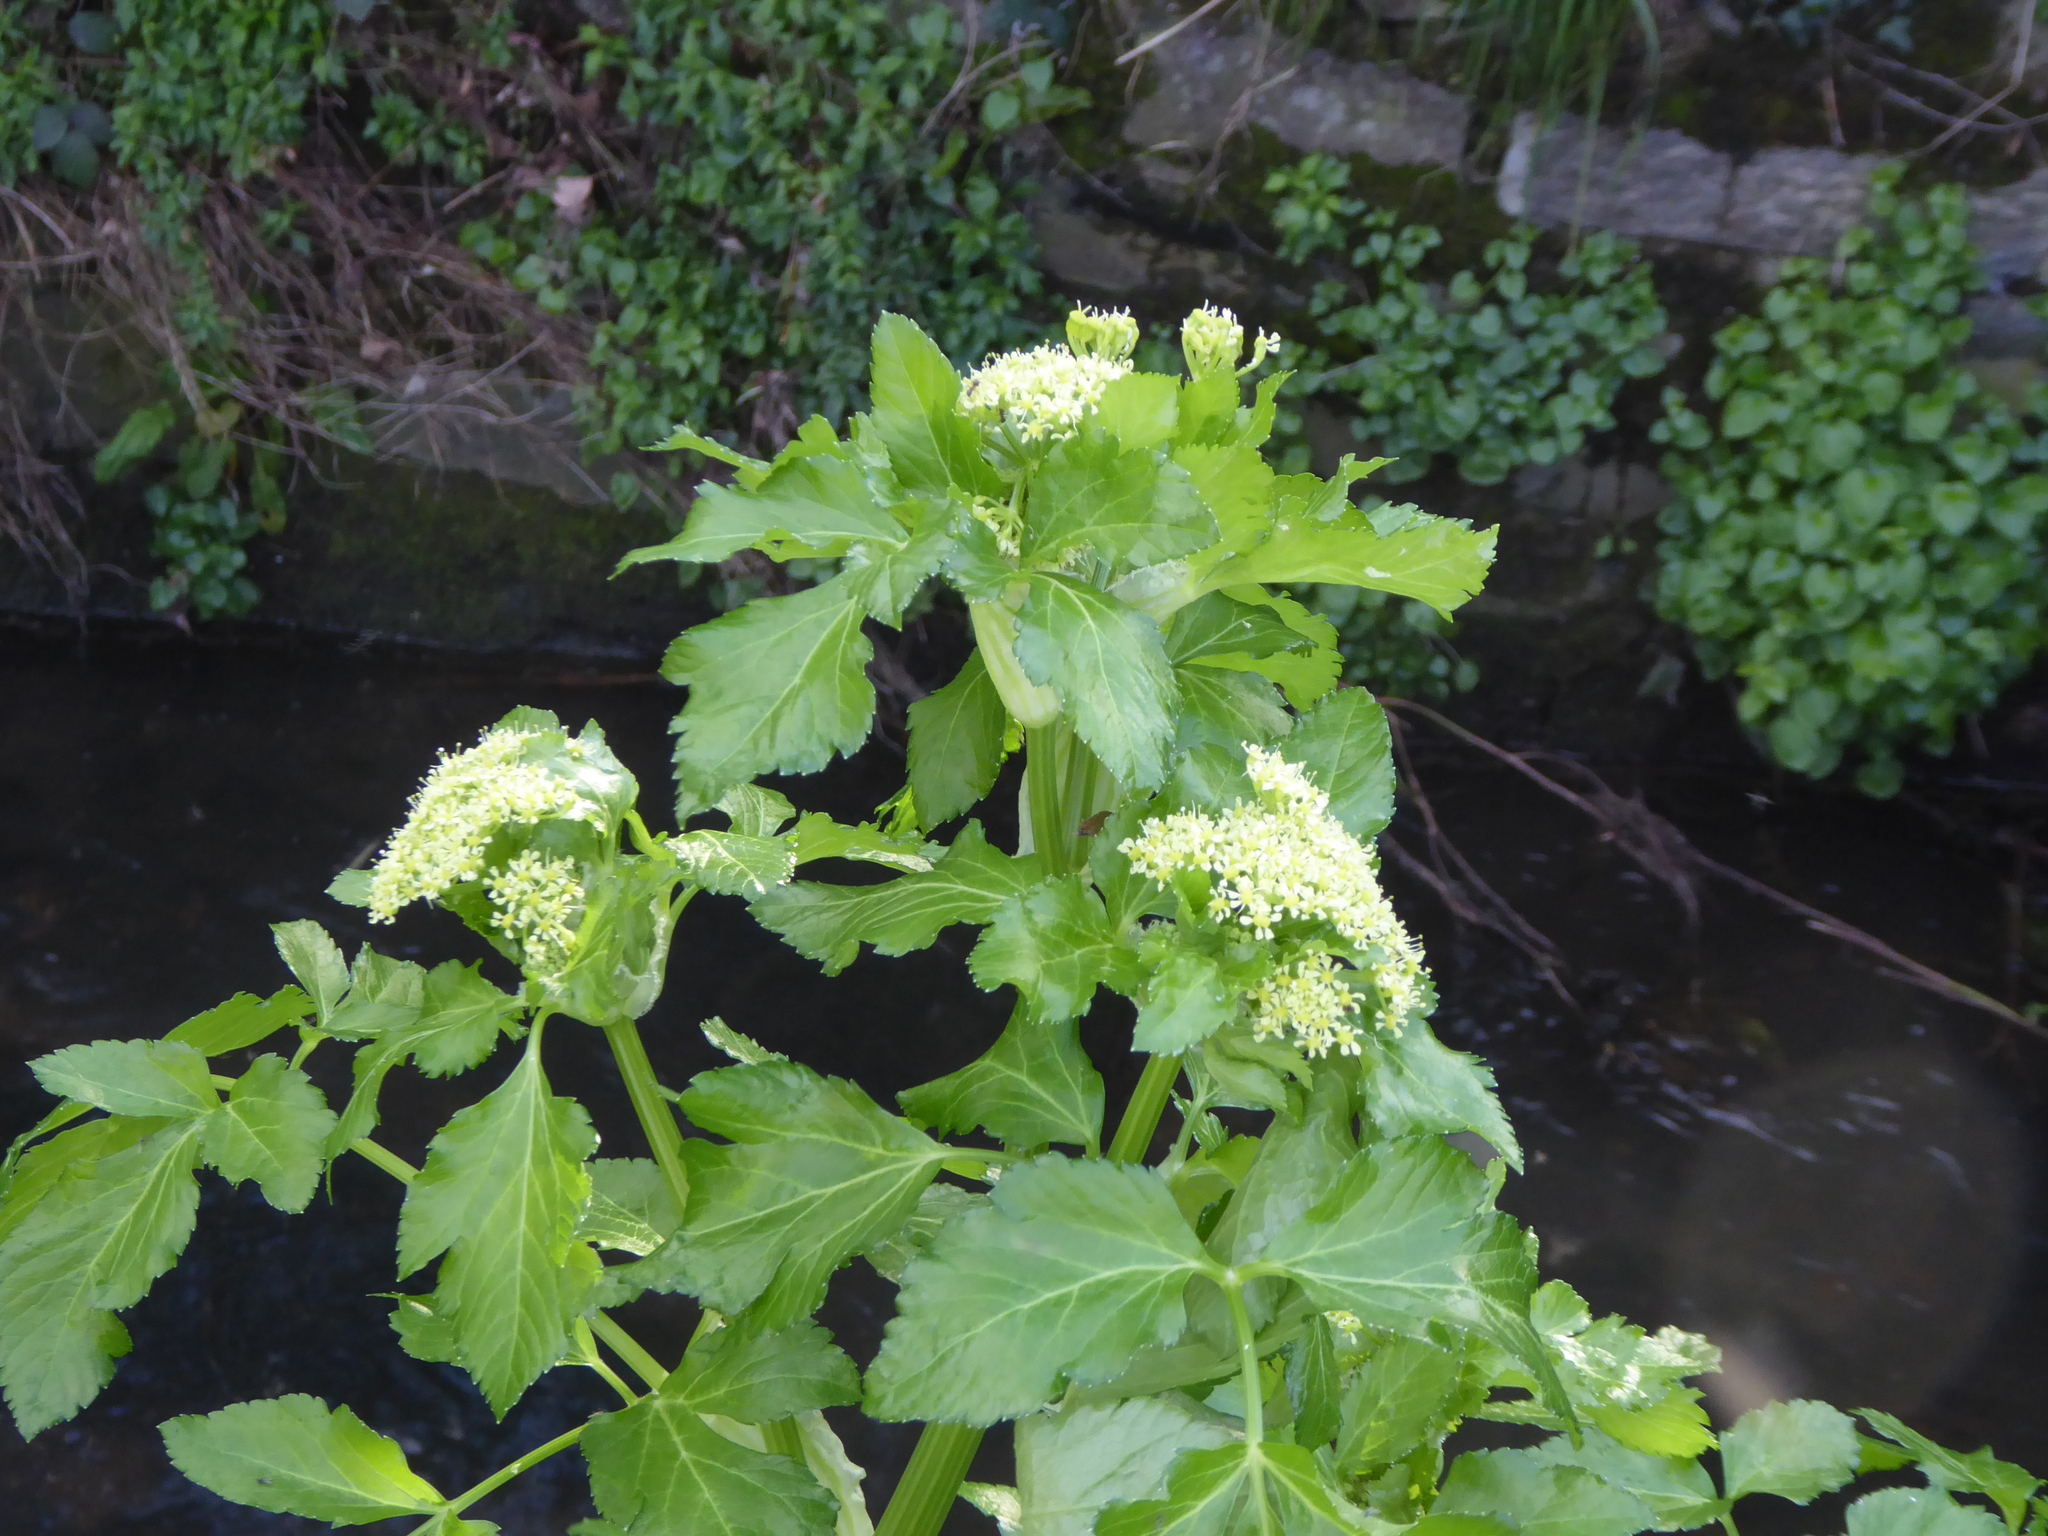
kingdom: Plantae
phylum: Tracheophyta
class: Magnoliopsida
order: Apiales
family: Apiaceae
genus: Smyrnium
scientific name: Smyrnium olusatrum
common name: Alexanders
